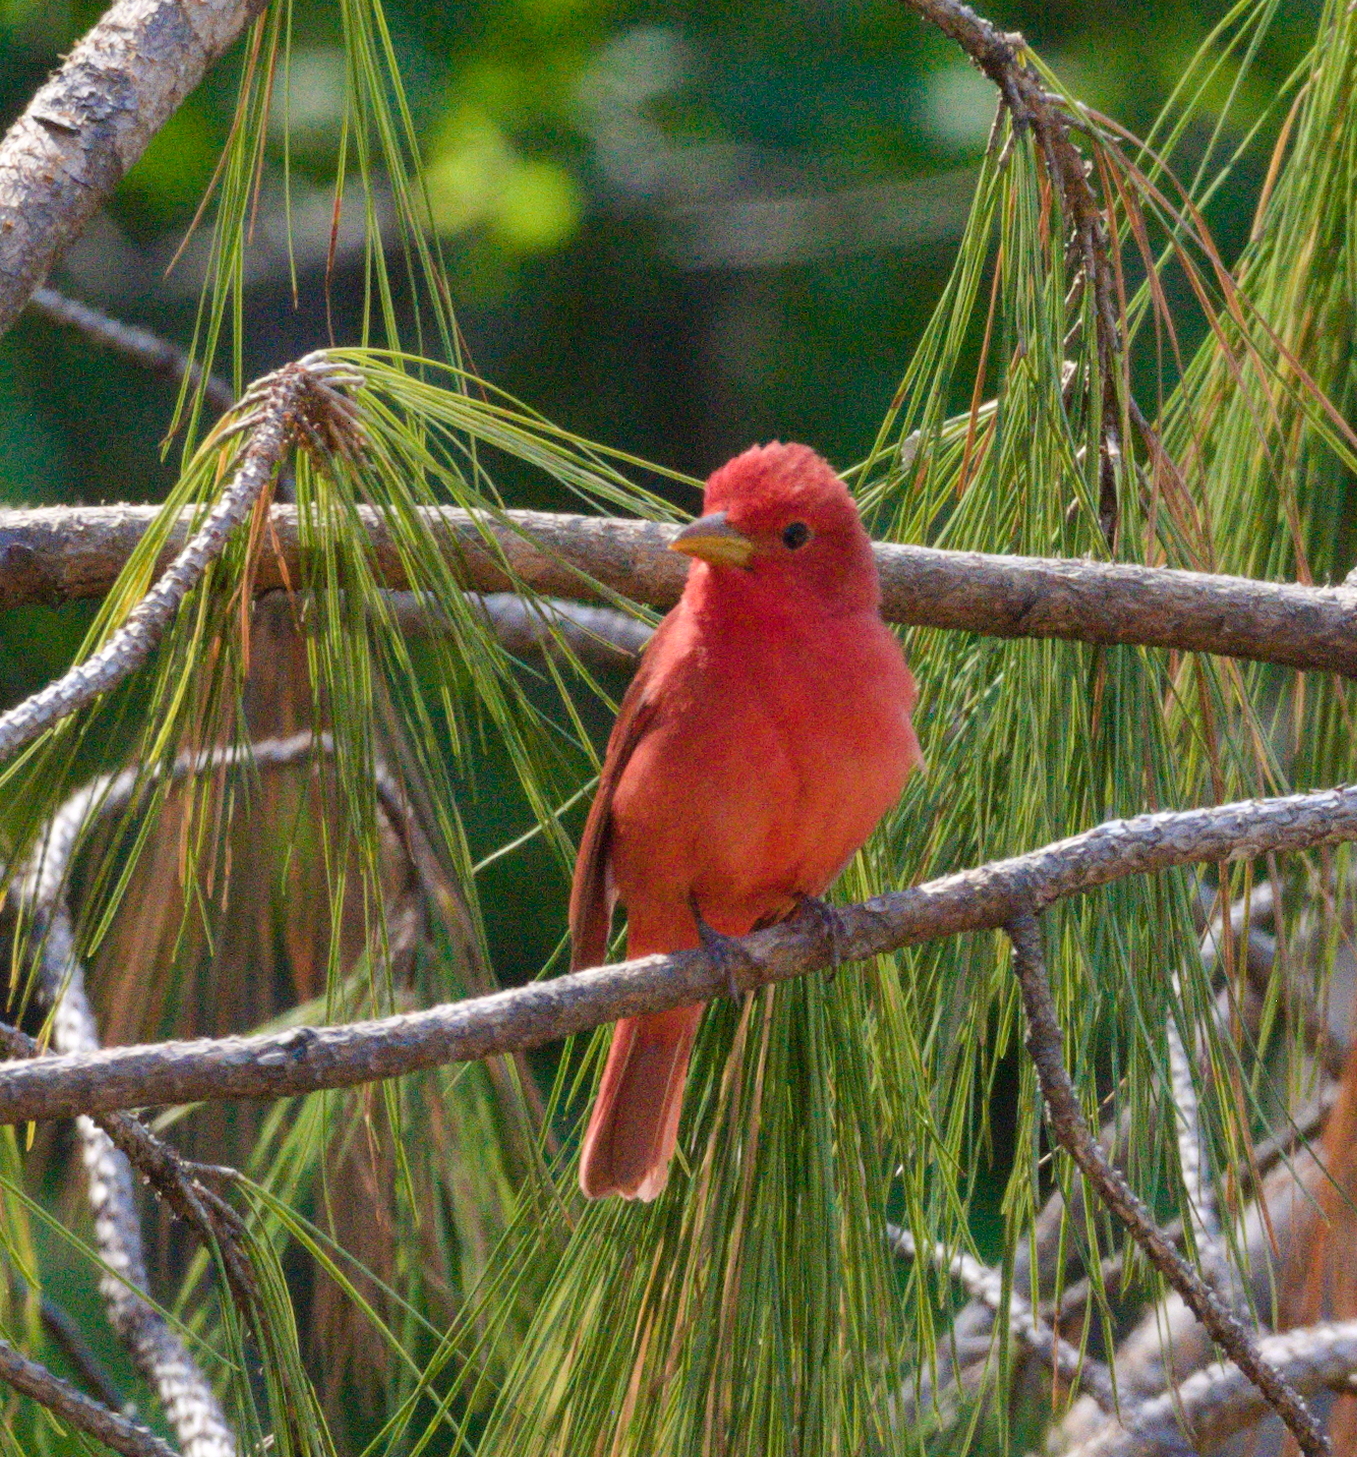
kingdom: Animalia
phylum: Chordata
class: Aves
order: Passeriformes
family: Cardinalidae
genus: Piranga
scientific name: Piranga rubra
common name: Summer tanager
